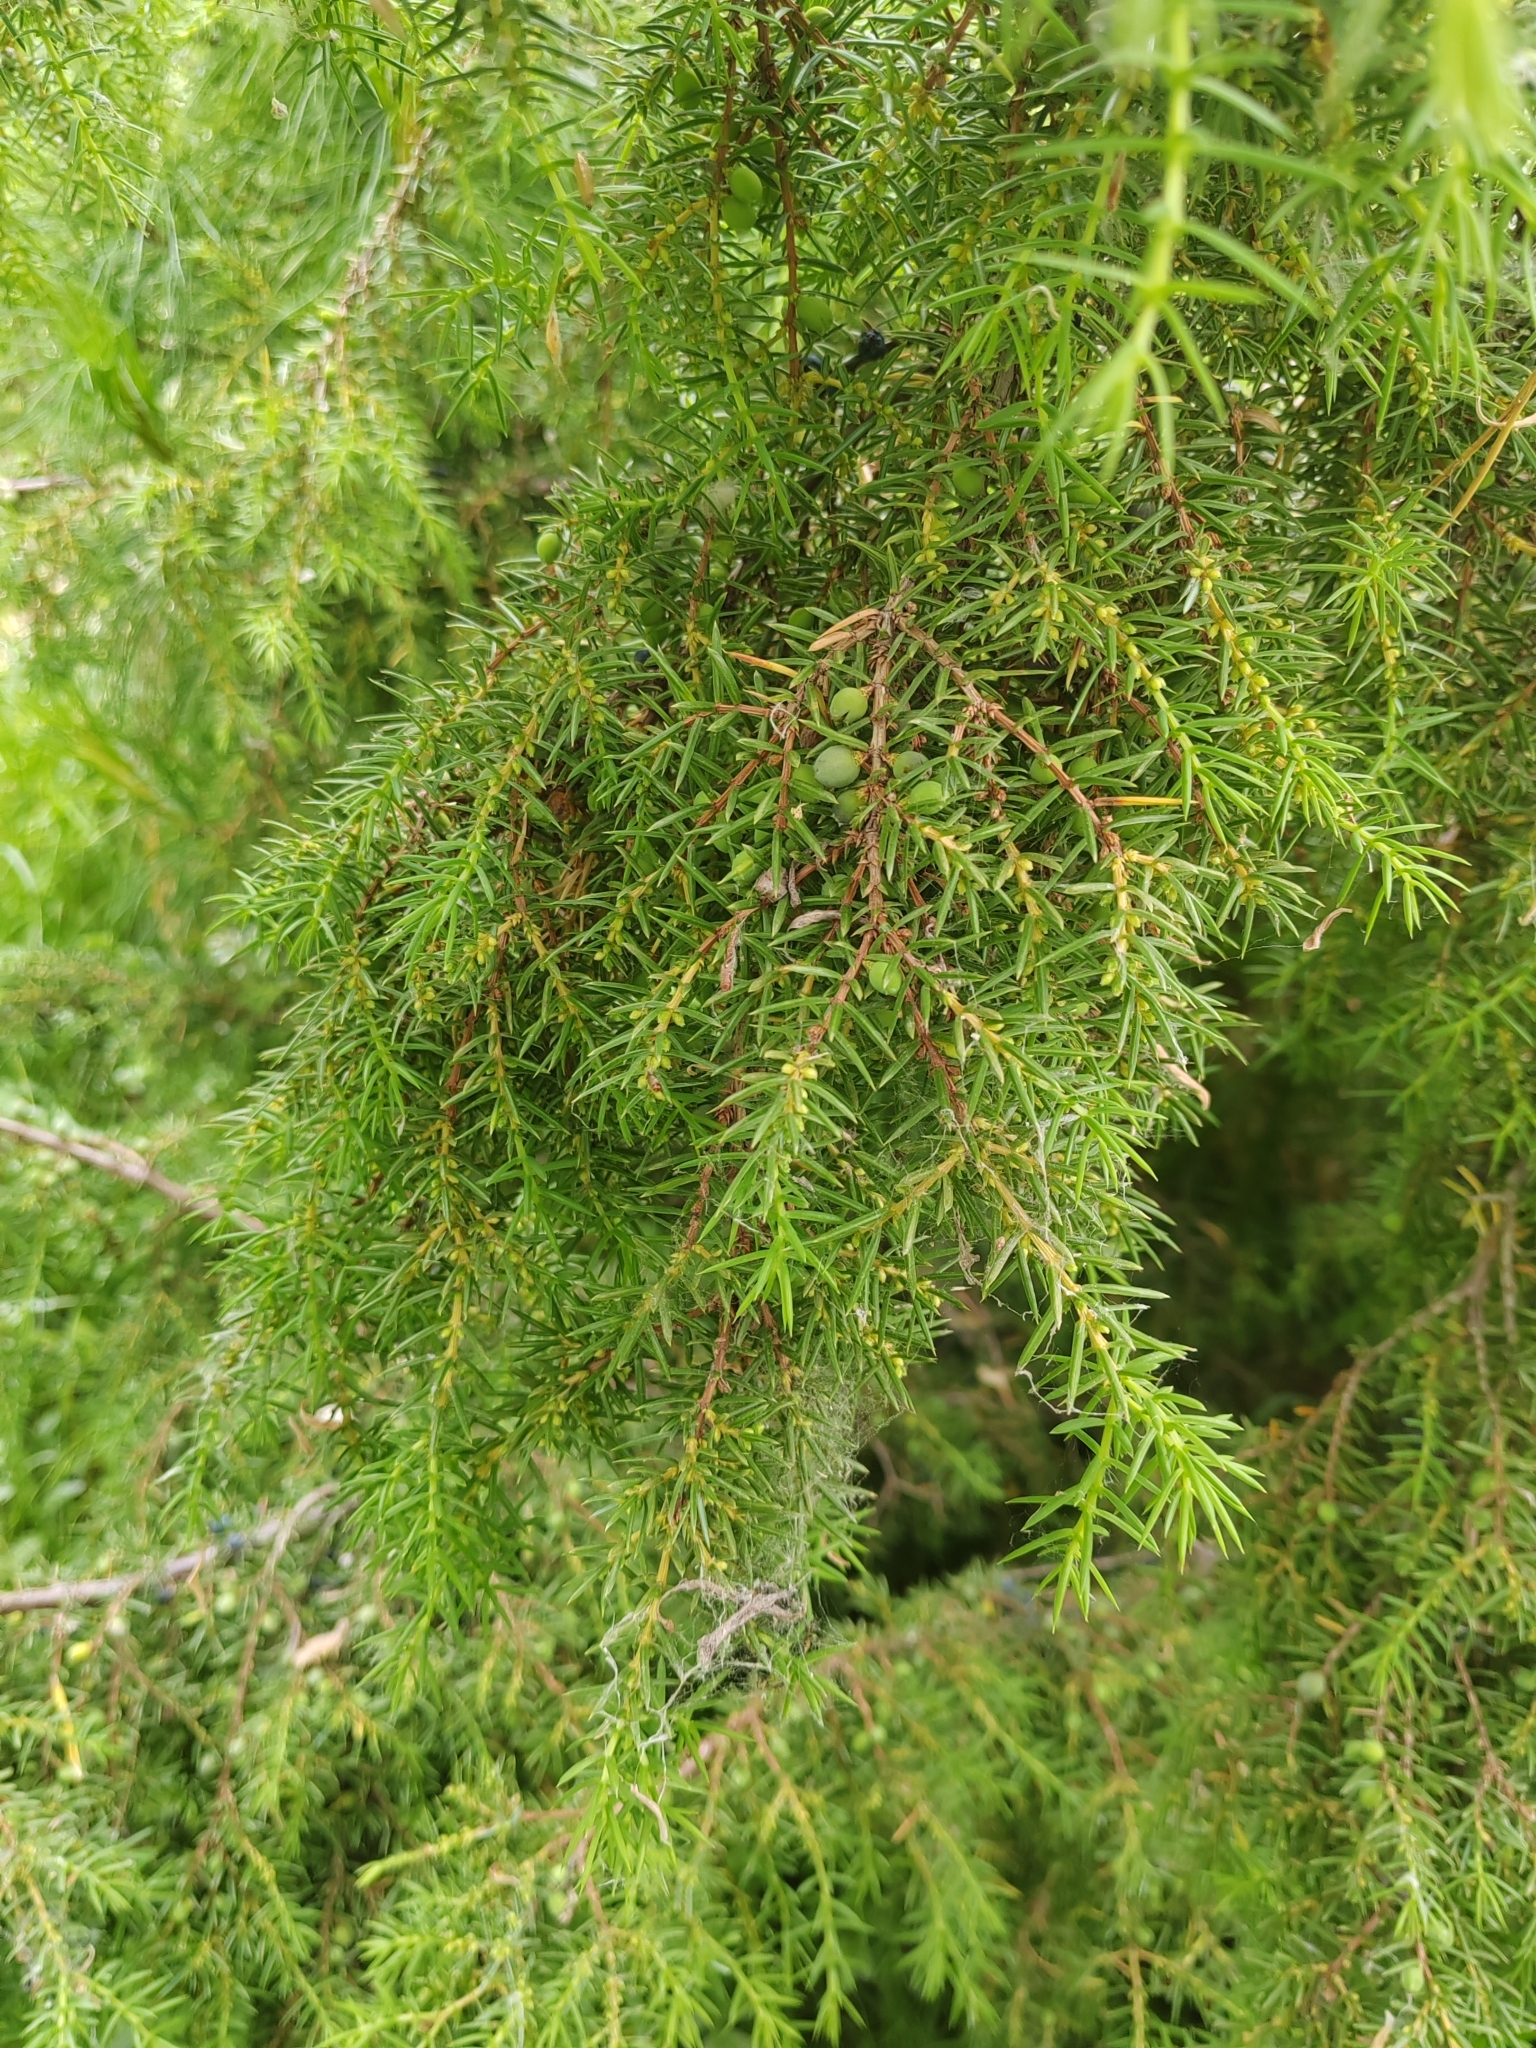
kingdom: Plantae
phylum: Tracheophyta
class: Pinopsida
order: Pinales
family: Cupressaceae
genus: Juniperus
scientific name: Juniperus communis
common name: Common juniper
